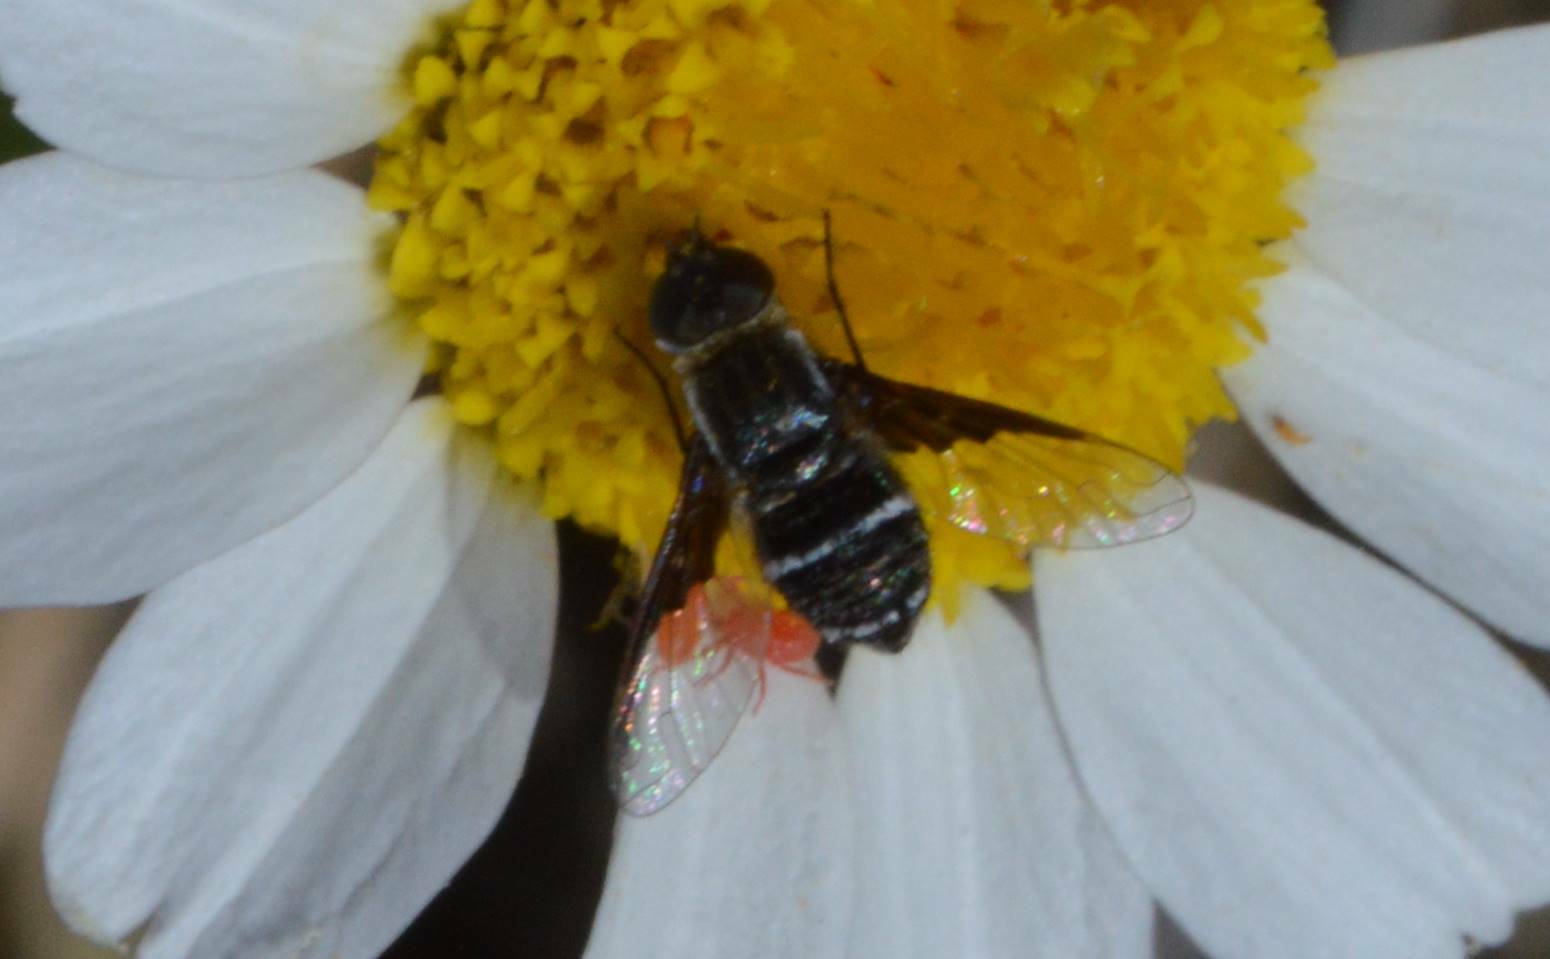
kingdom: Animalia
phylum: Arthropoda
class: Insecta
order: Diptera
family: Bombyliidae
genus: Exhyalanthrax
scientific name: Exhyalanthrax afer
